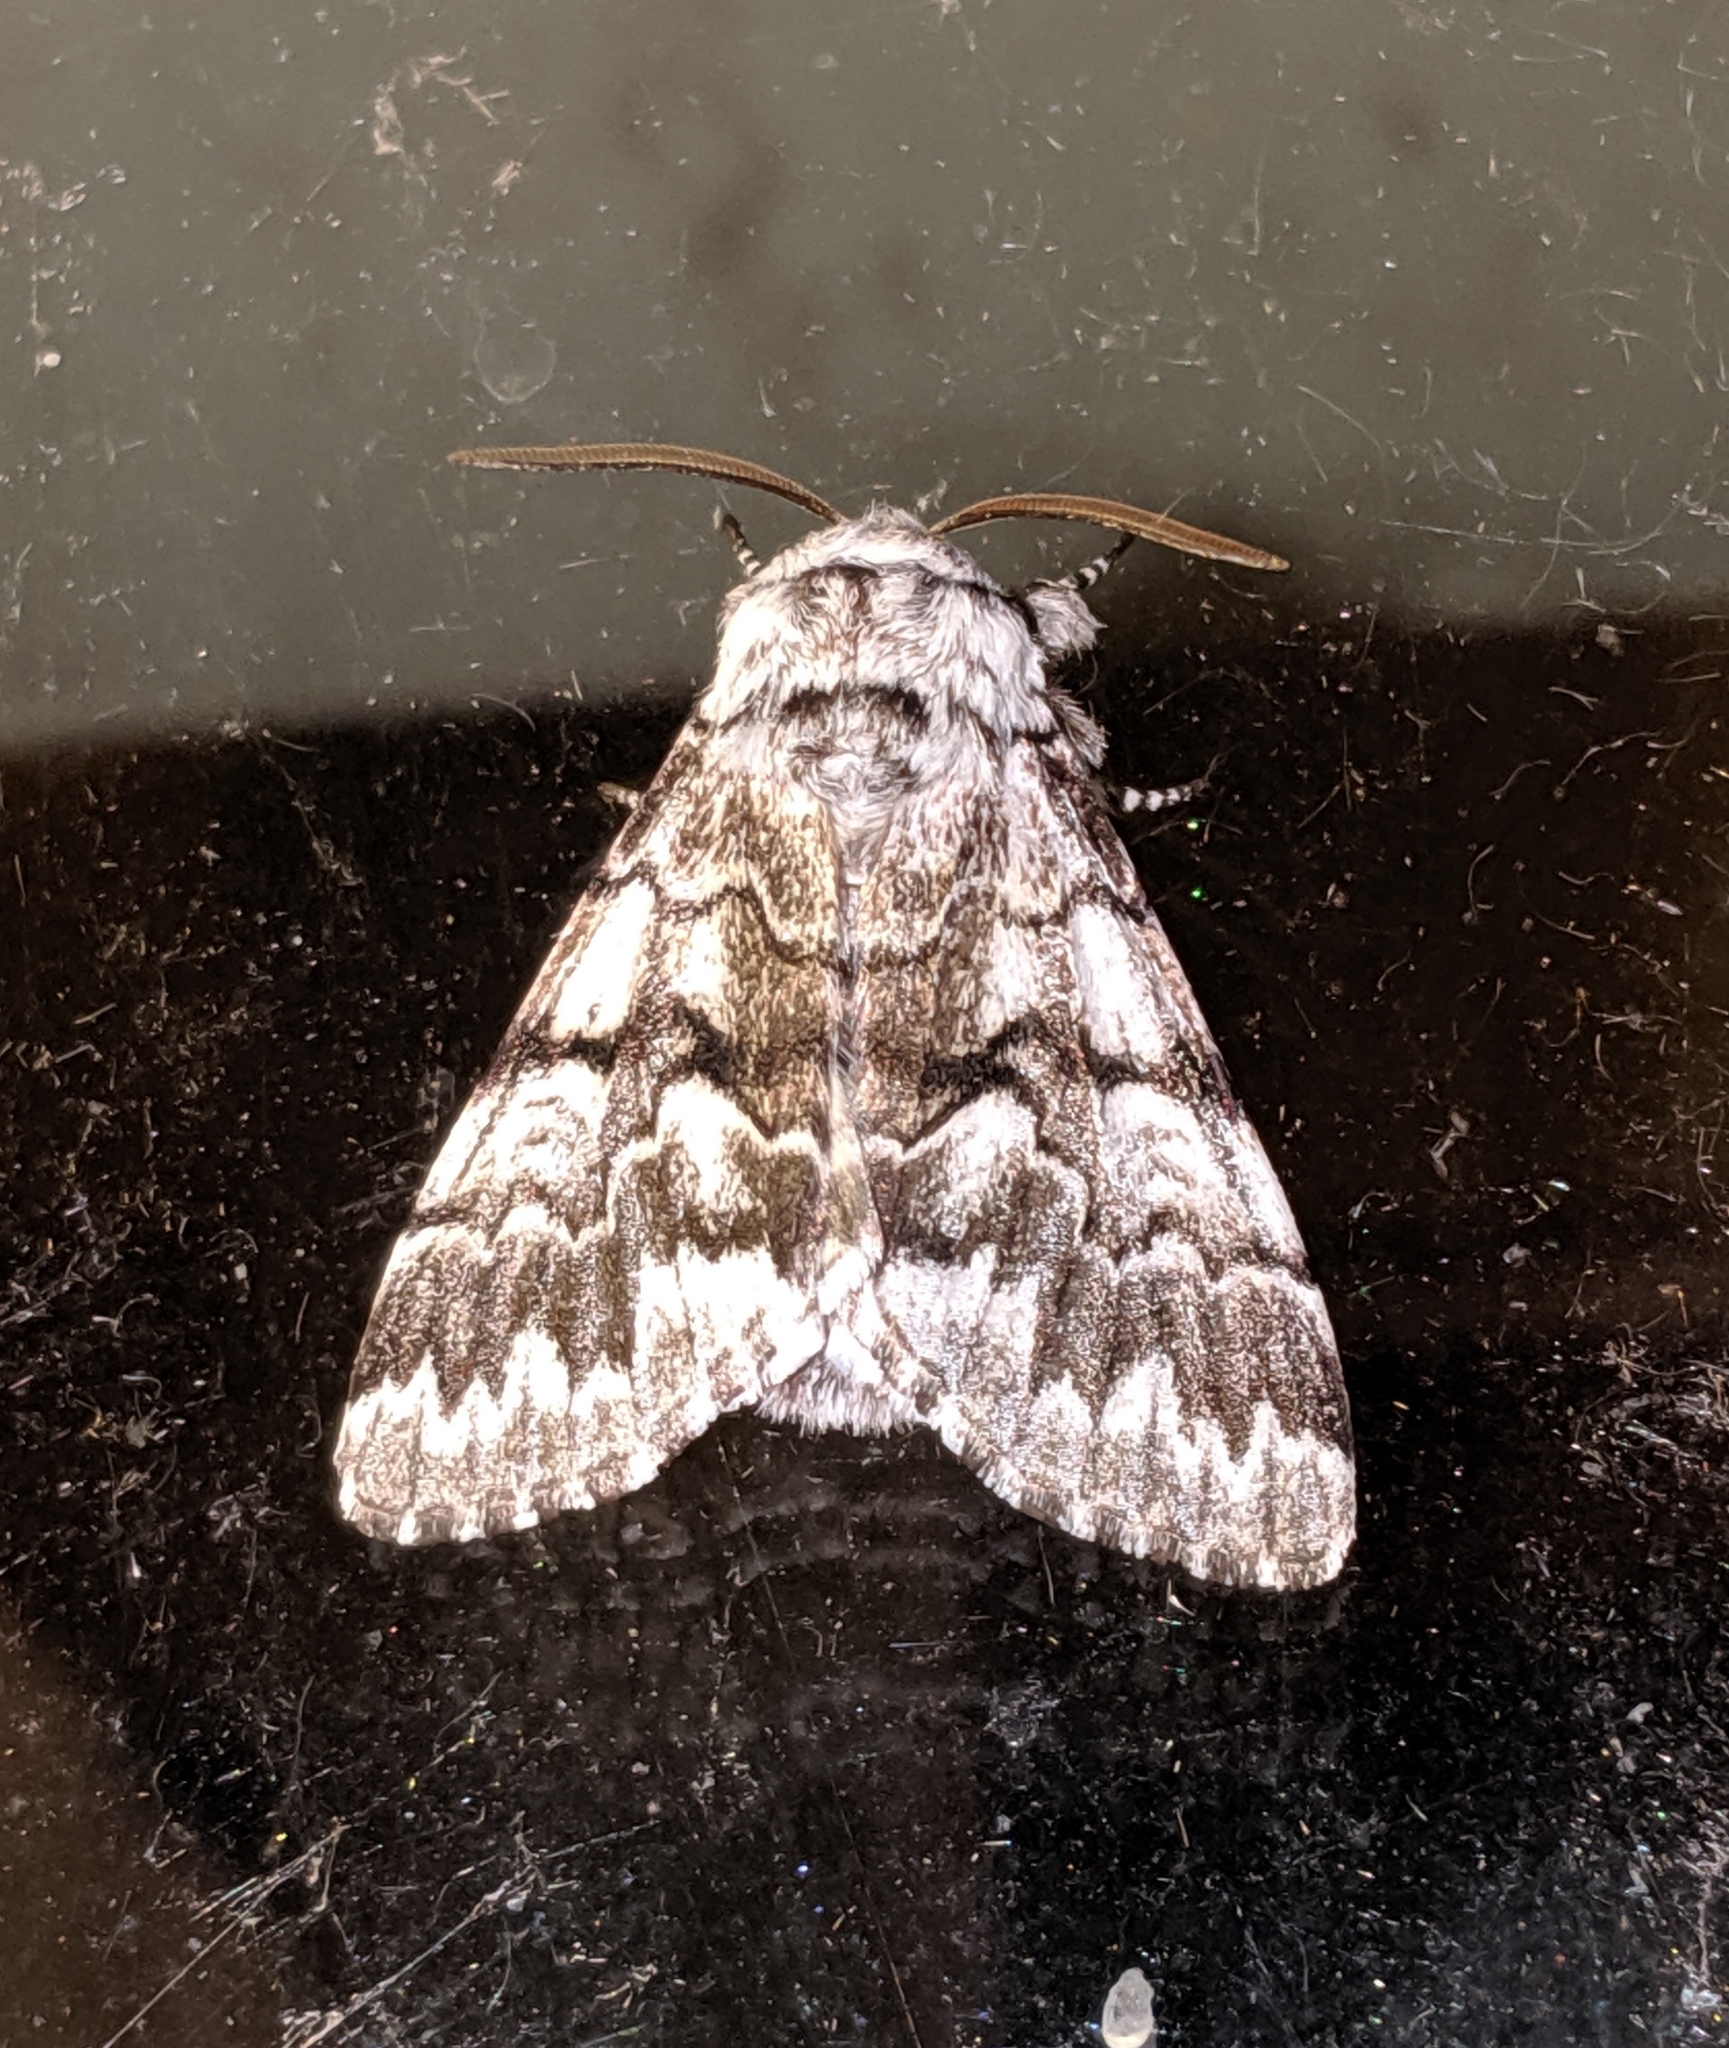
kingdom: Animalia
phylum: Arthropoda
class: Insecta
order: Lepidoptera
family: Noctuidae
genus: Panthea
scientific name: Panthea virginarius
